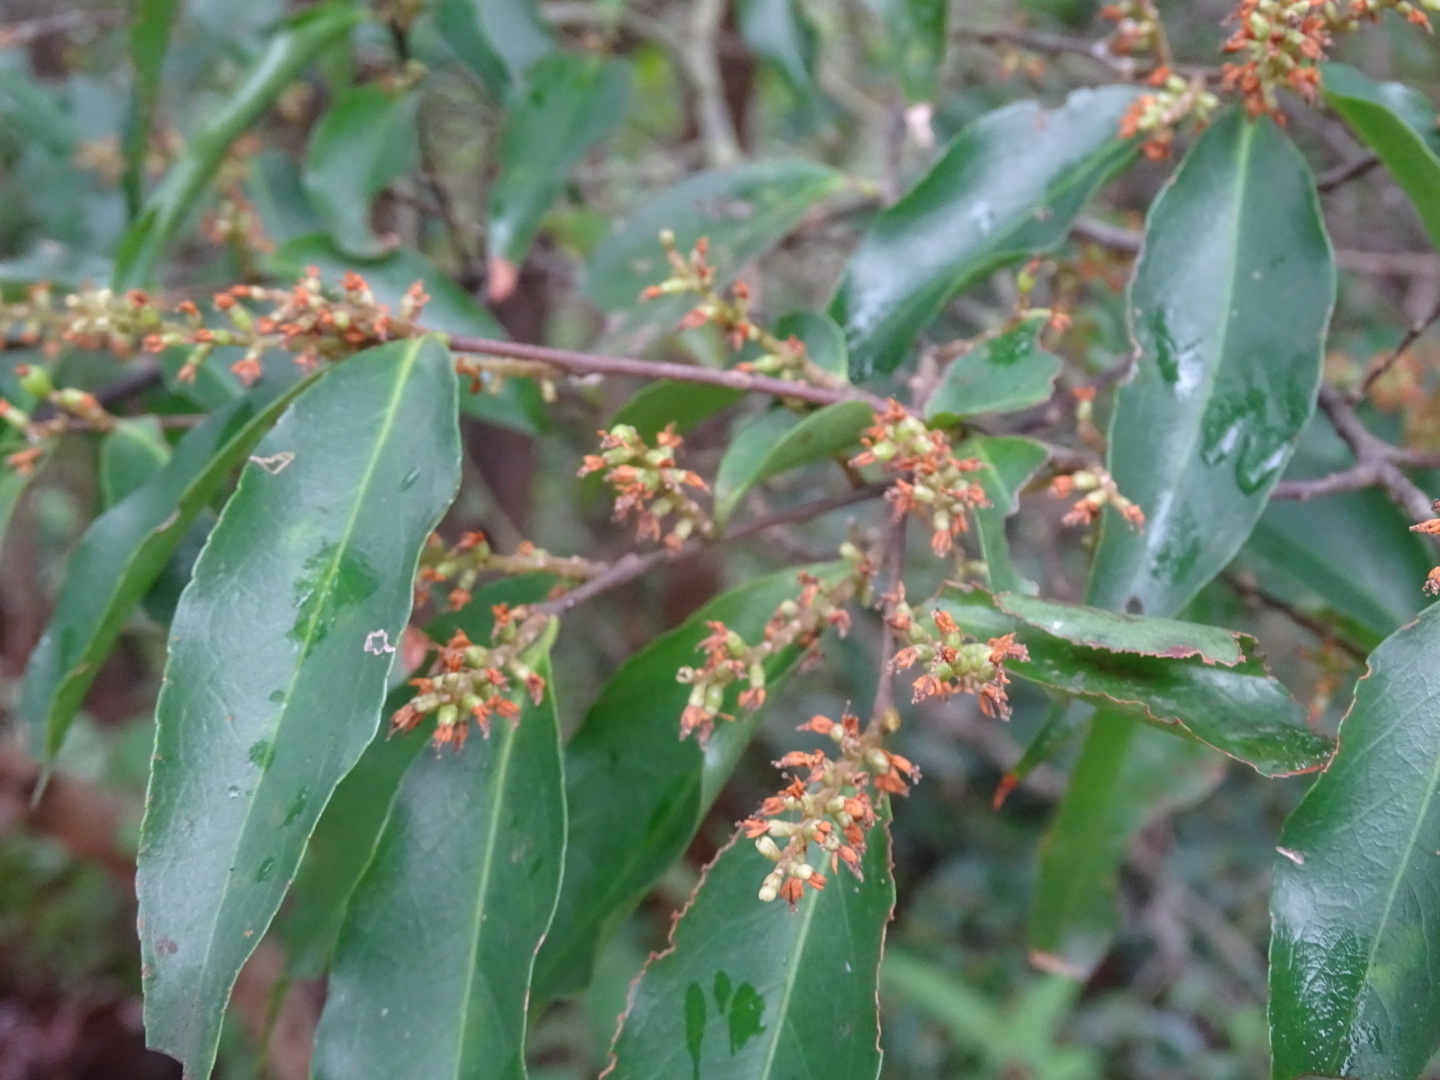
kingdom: Plantae
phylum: Tracheophyta
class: Magnoliopsida
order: Ericales
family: Symplocaceae
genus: Symplocos
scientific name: Symplocos lancifolia
